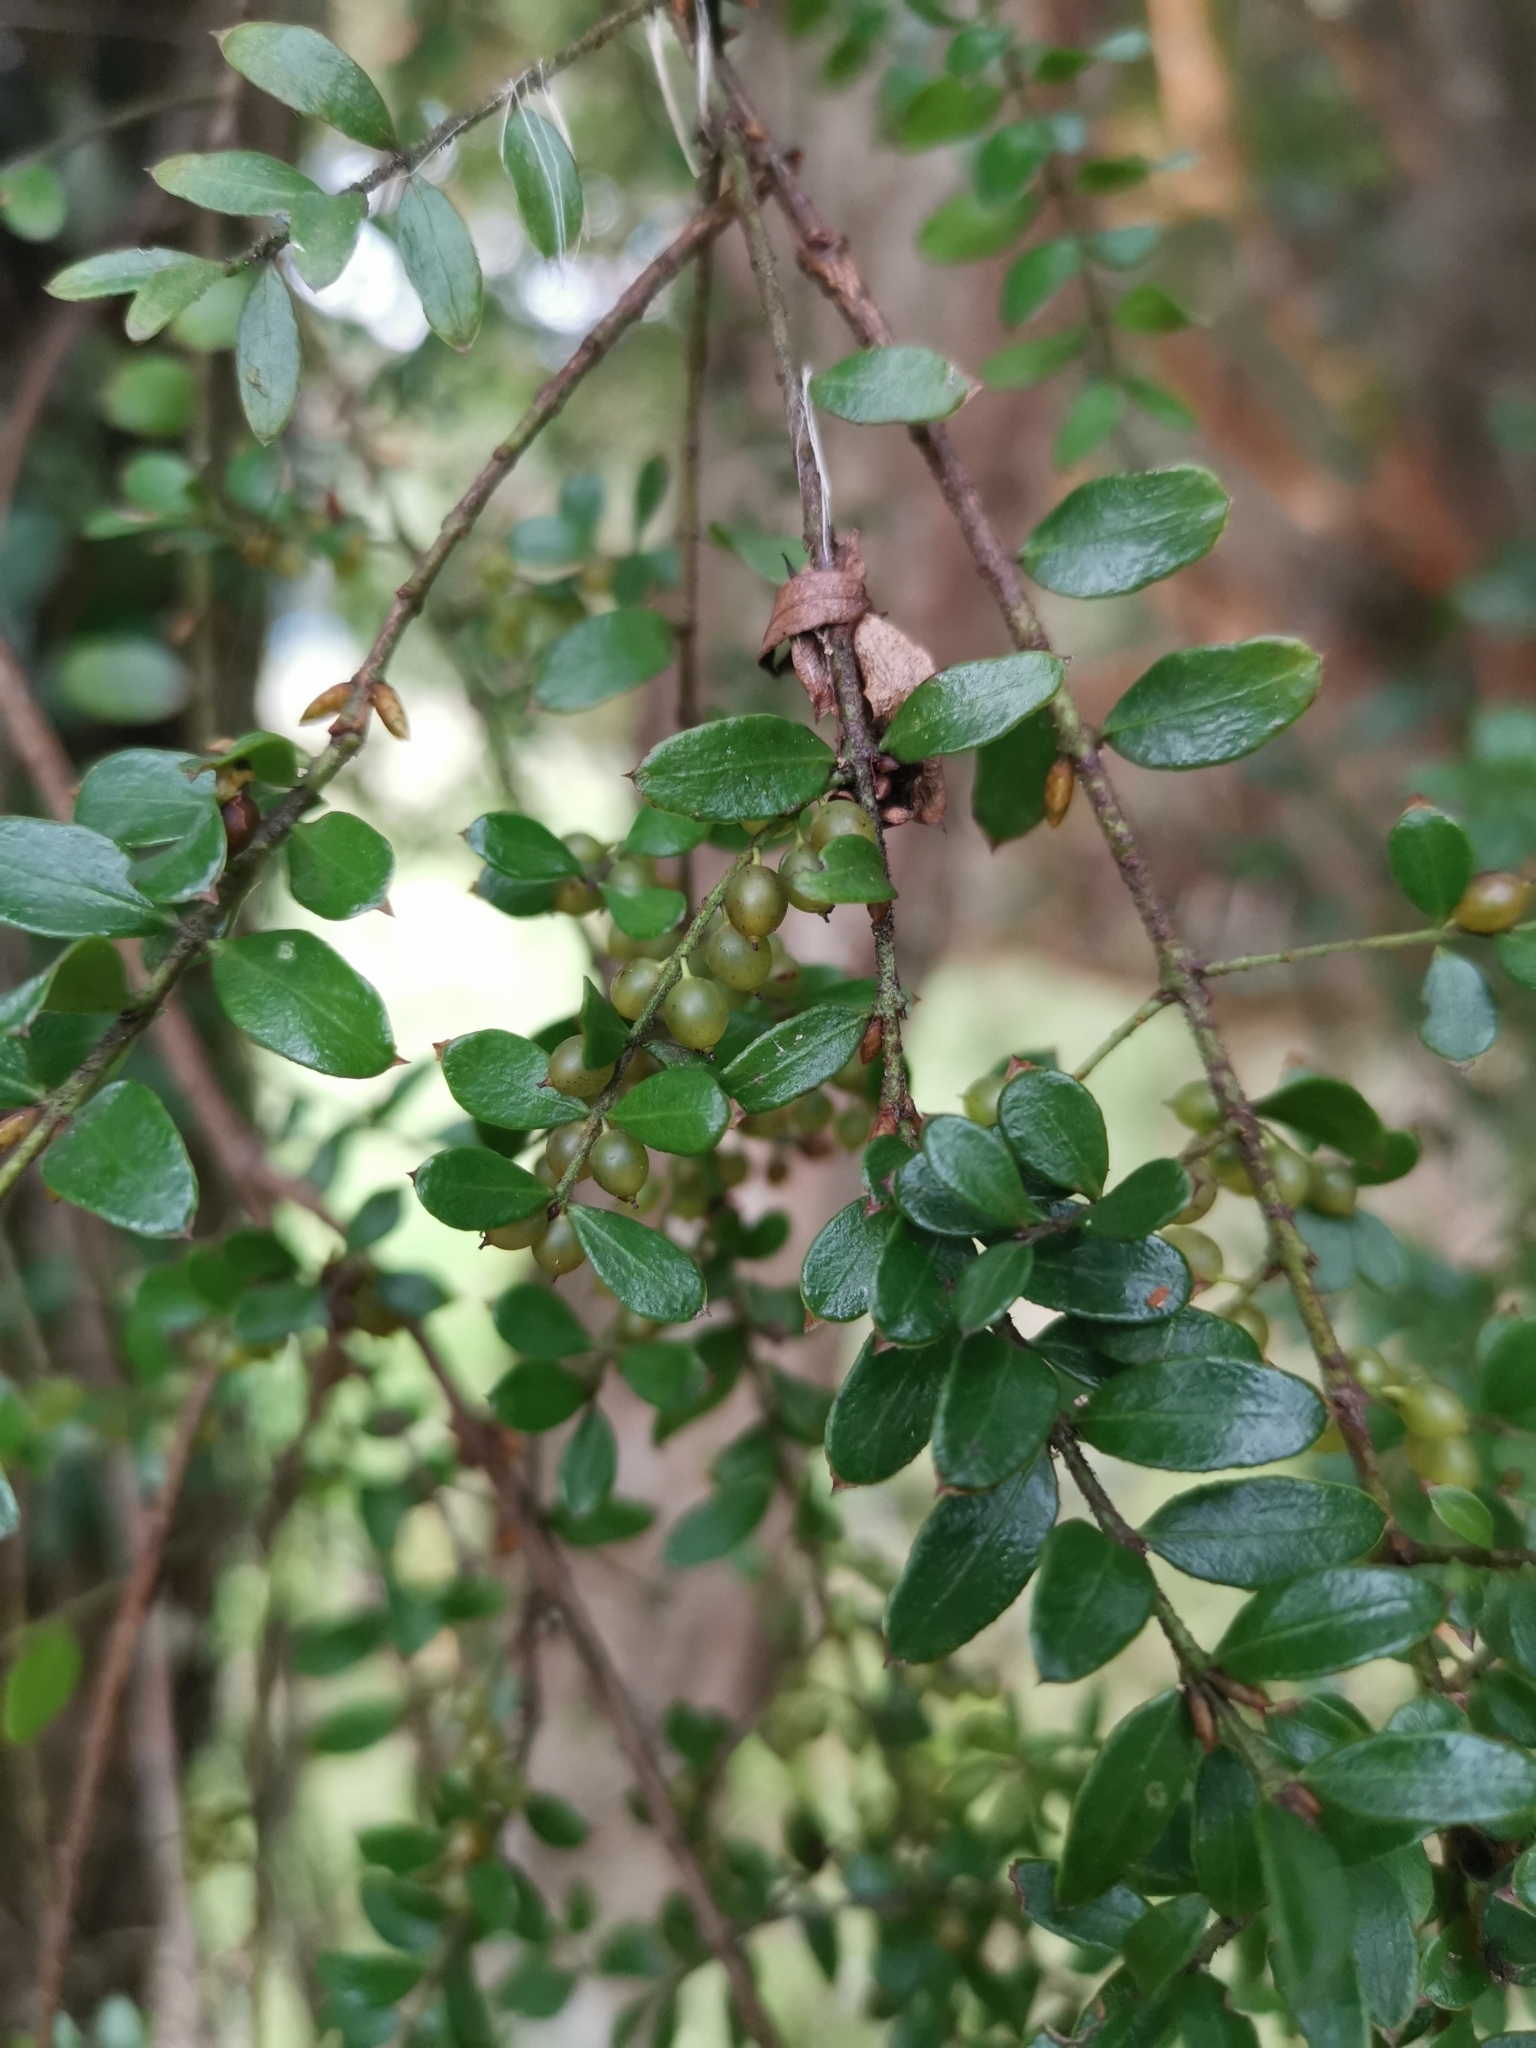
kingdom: Plantae
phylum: Tracheophyta
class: Magnoliopsida
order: Santalales
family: Santalaceae
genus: Lepidoceras
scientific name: Lepidoceras chilense
